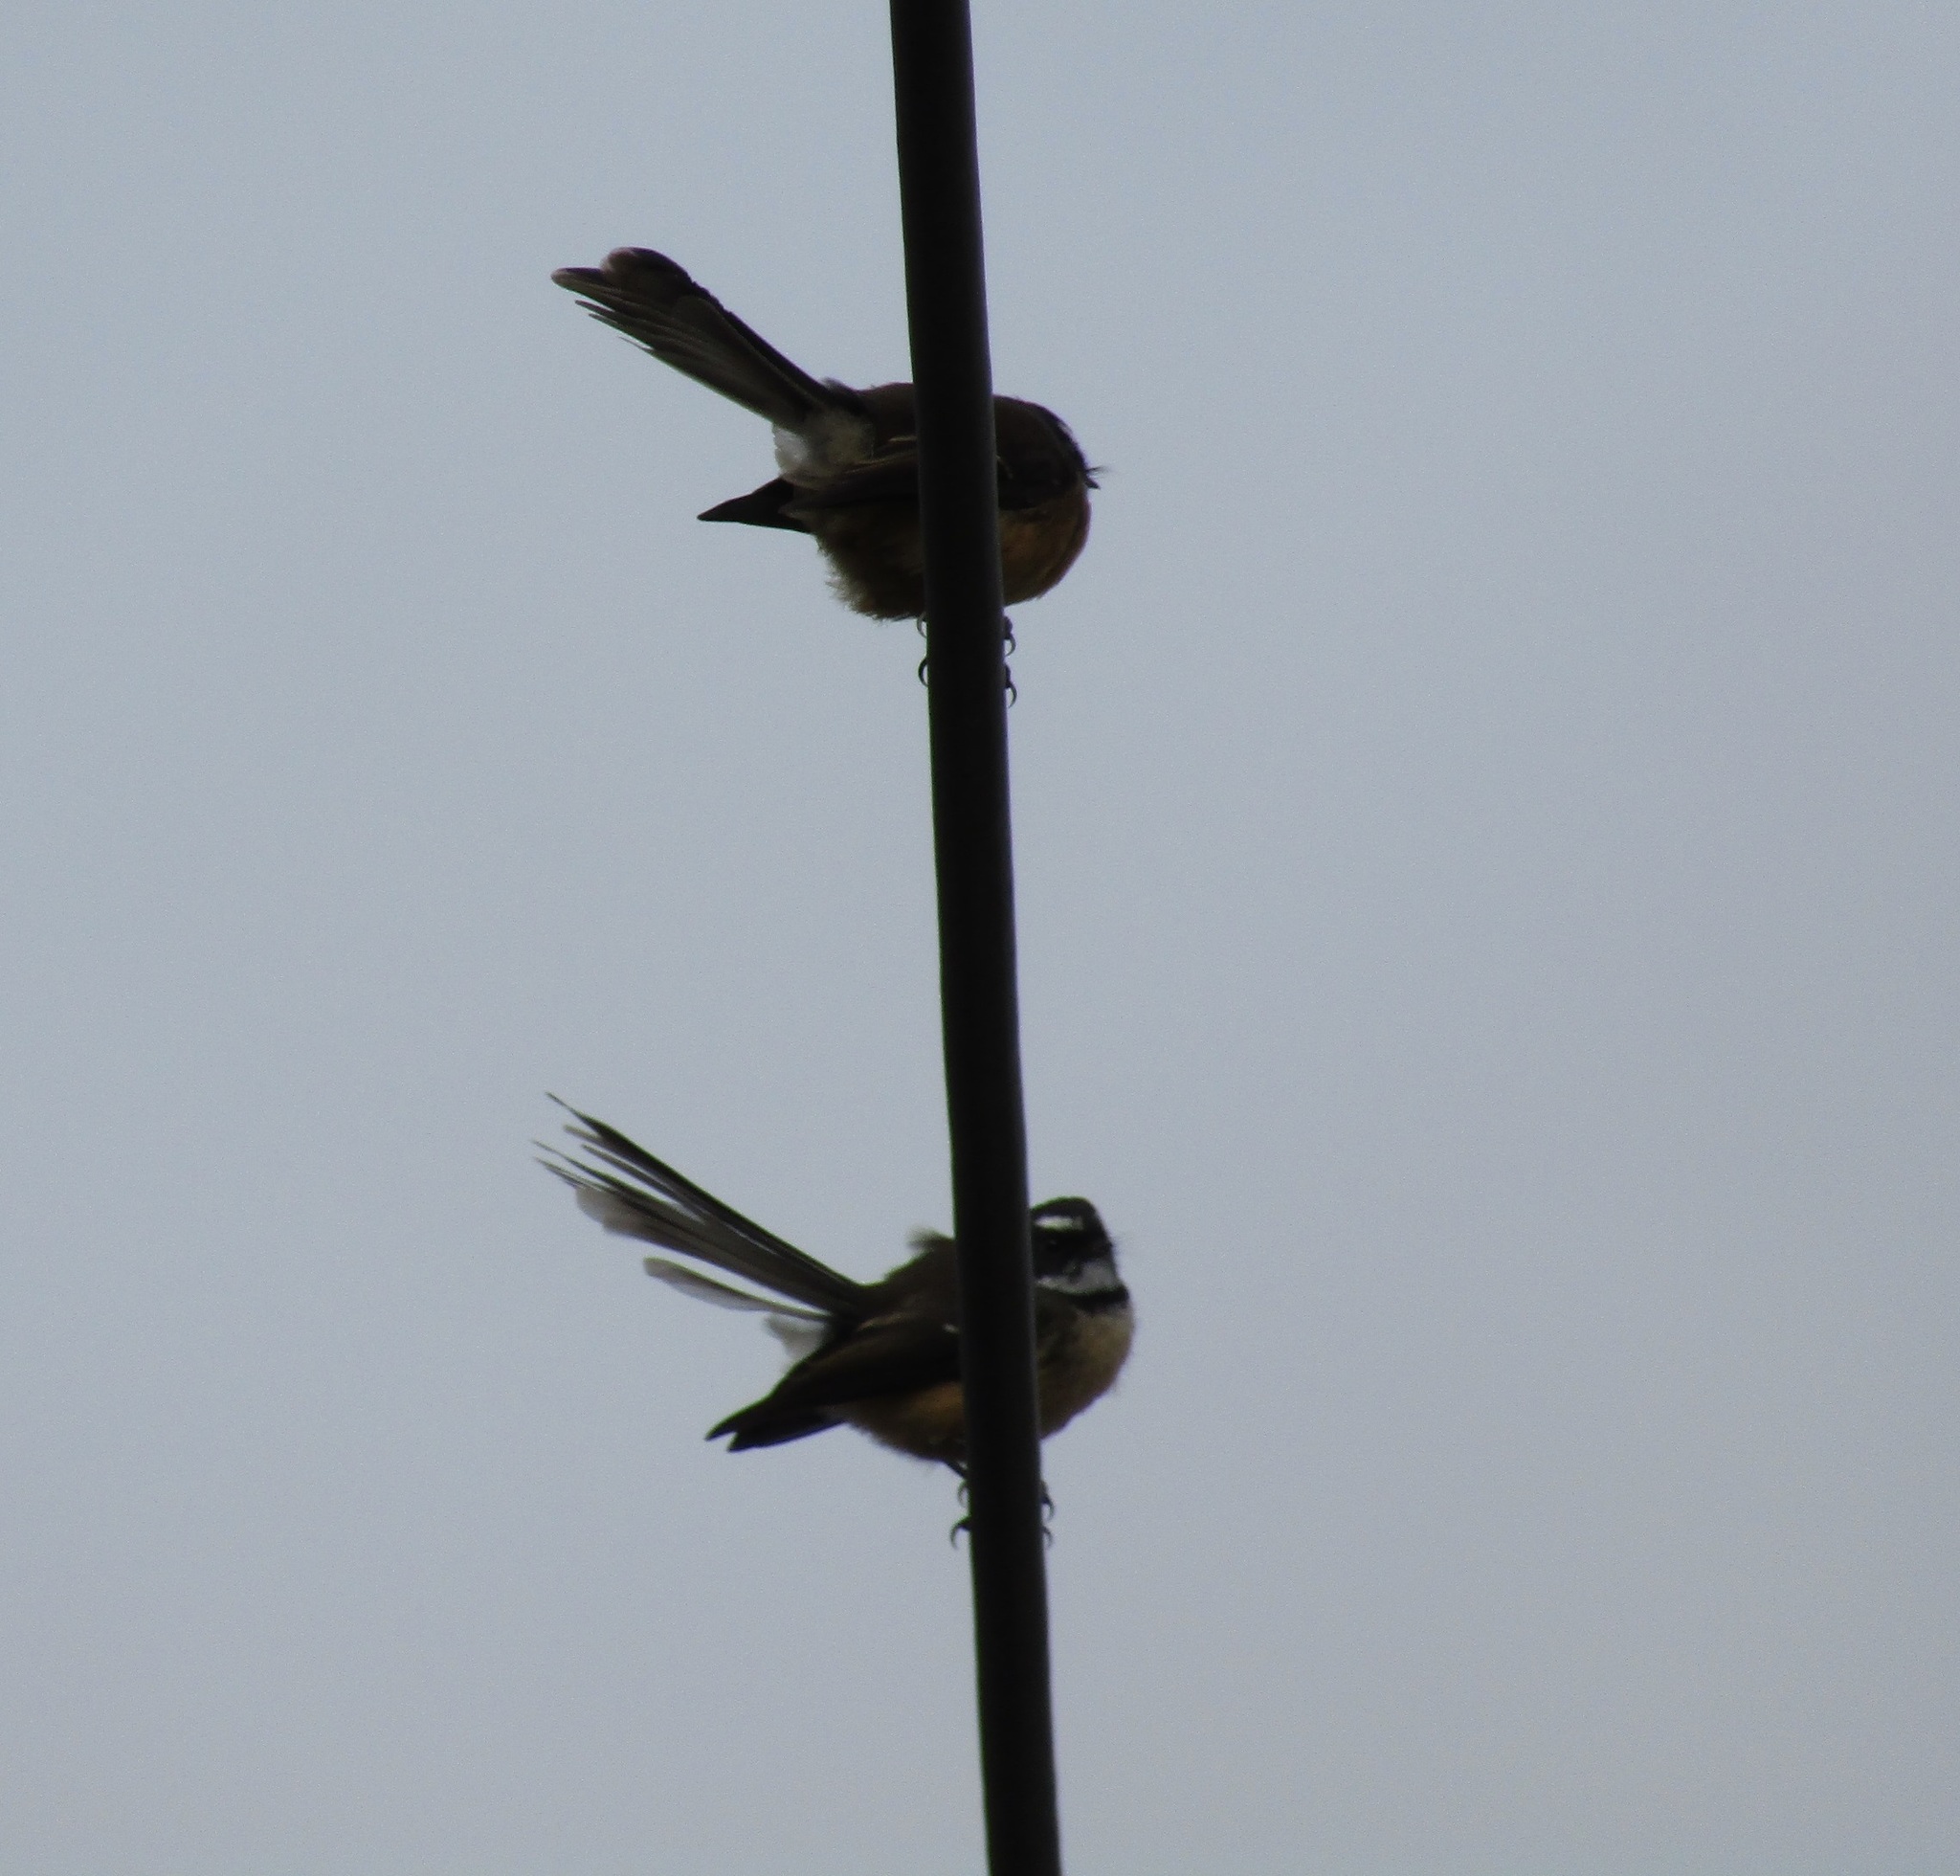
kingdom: Animalia
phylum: Chordata
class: Aves
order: Passeriformes
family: Rhipiduridae
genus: Rhipidura
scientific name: Rhipidura fuliginosa
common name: New zealand fantail
